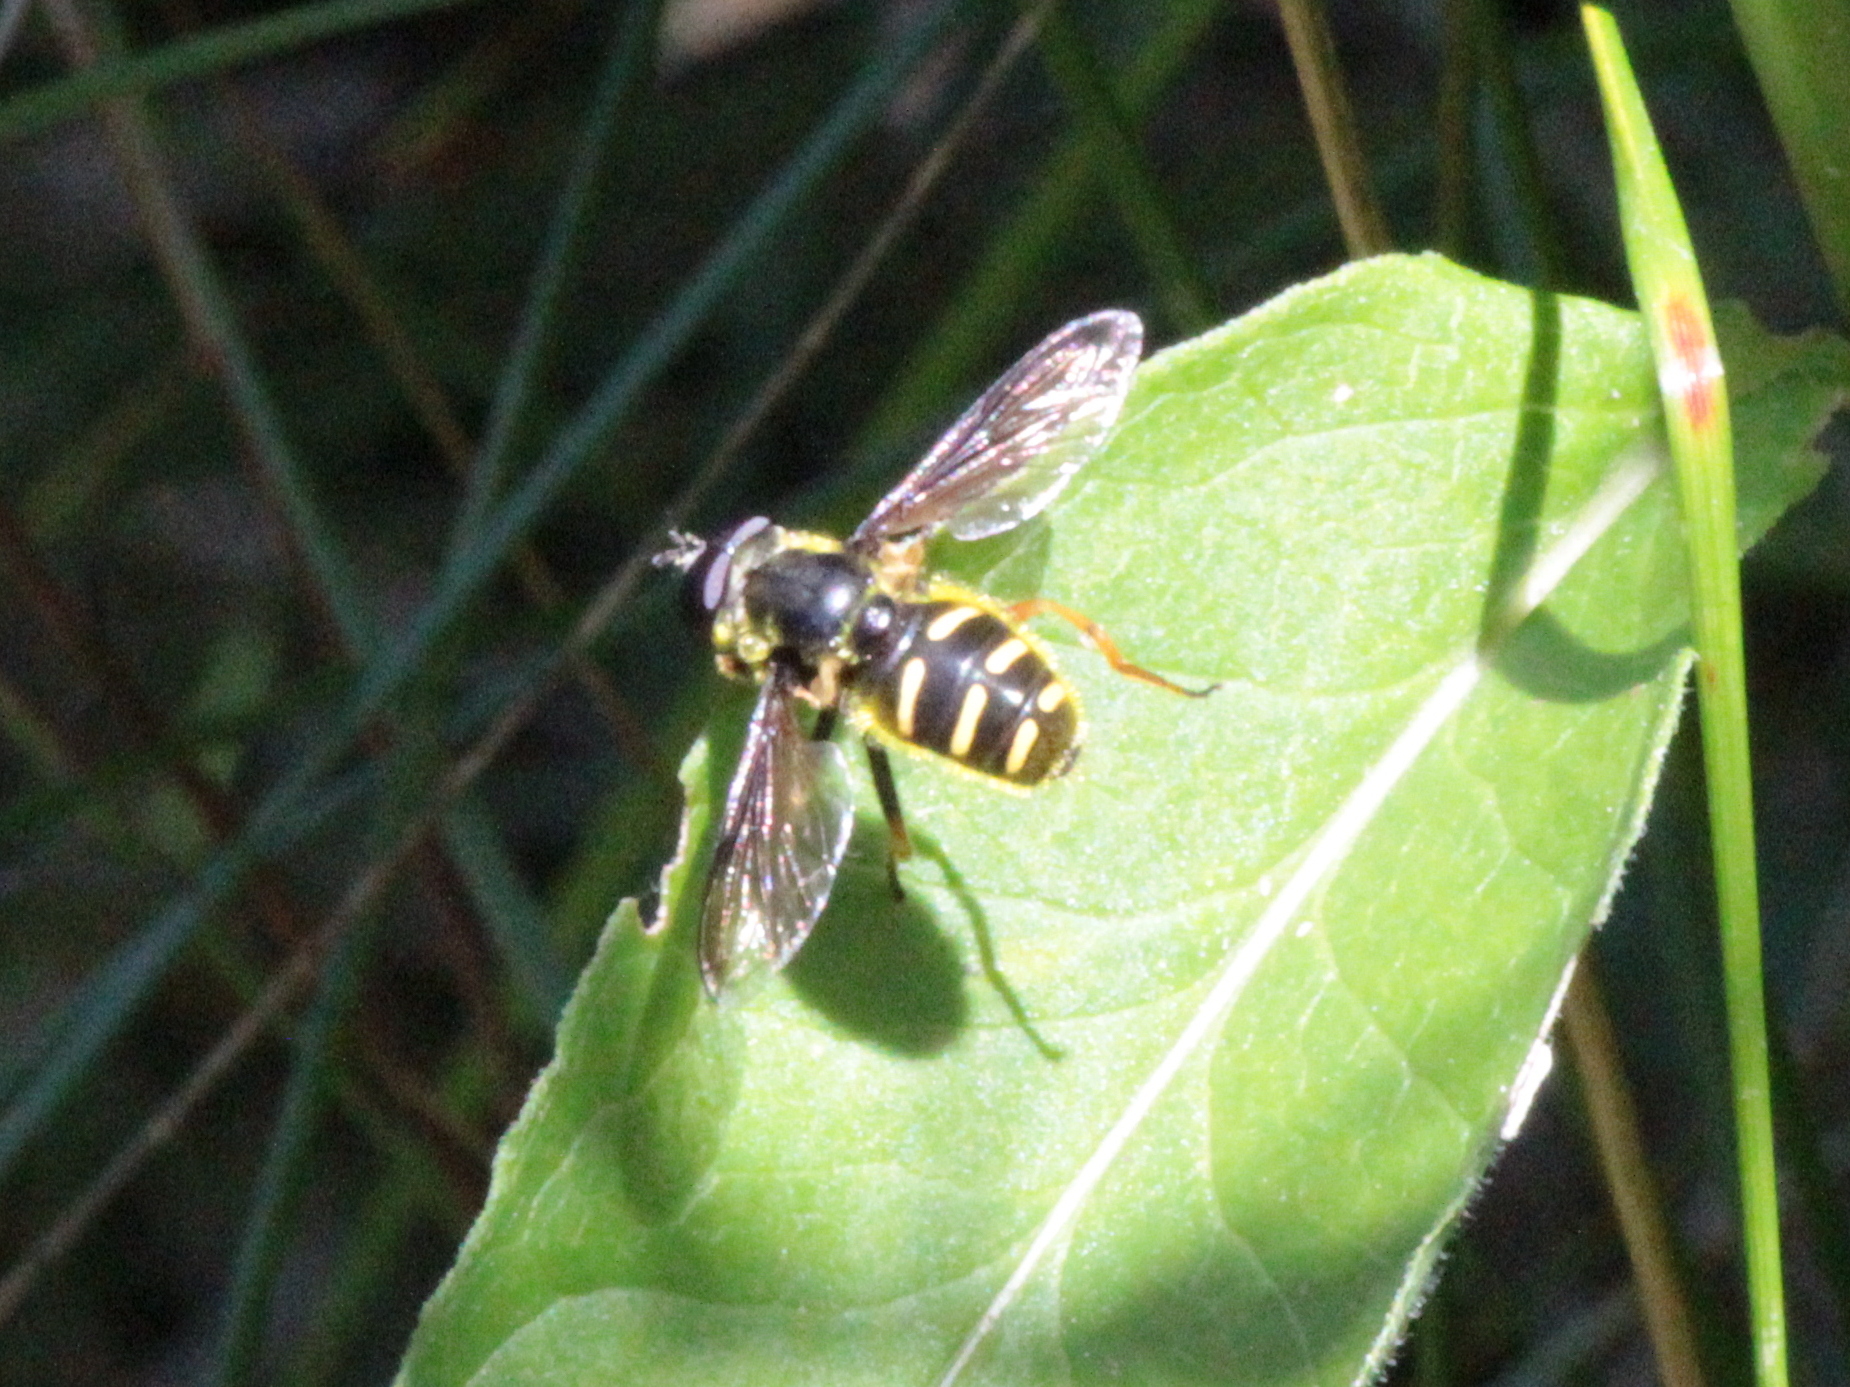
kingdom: Animalia
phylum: Arthropoda
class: Insecta
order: Diptera
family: Syrphidae
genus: Sericomyia
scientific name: Sericomyia chrysotoxoides
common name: Oblique-banded pond fly
